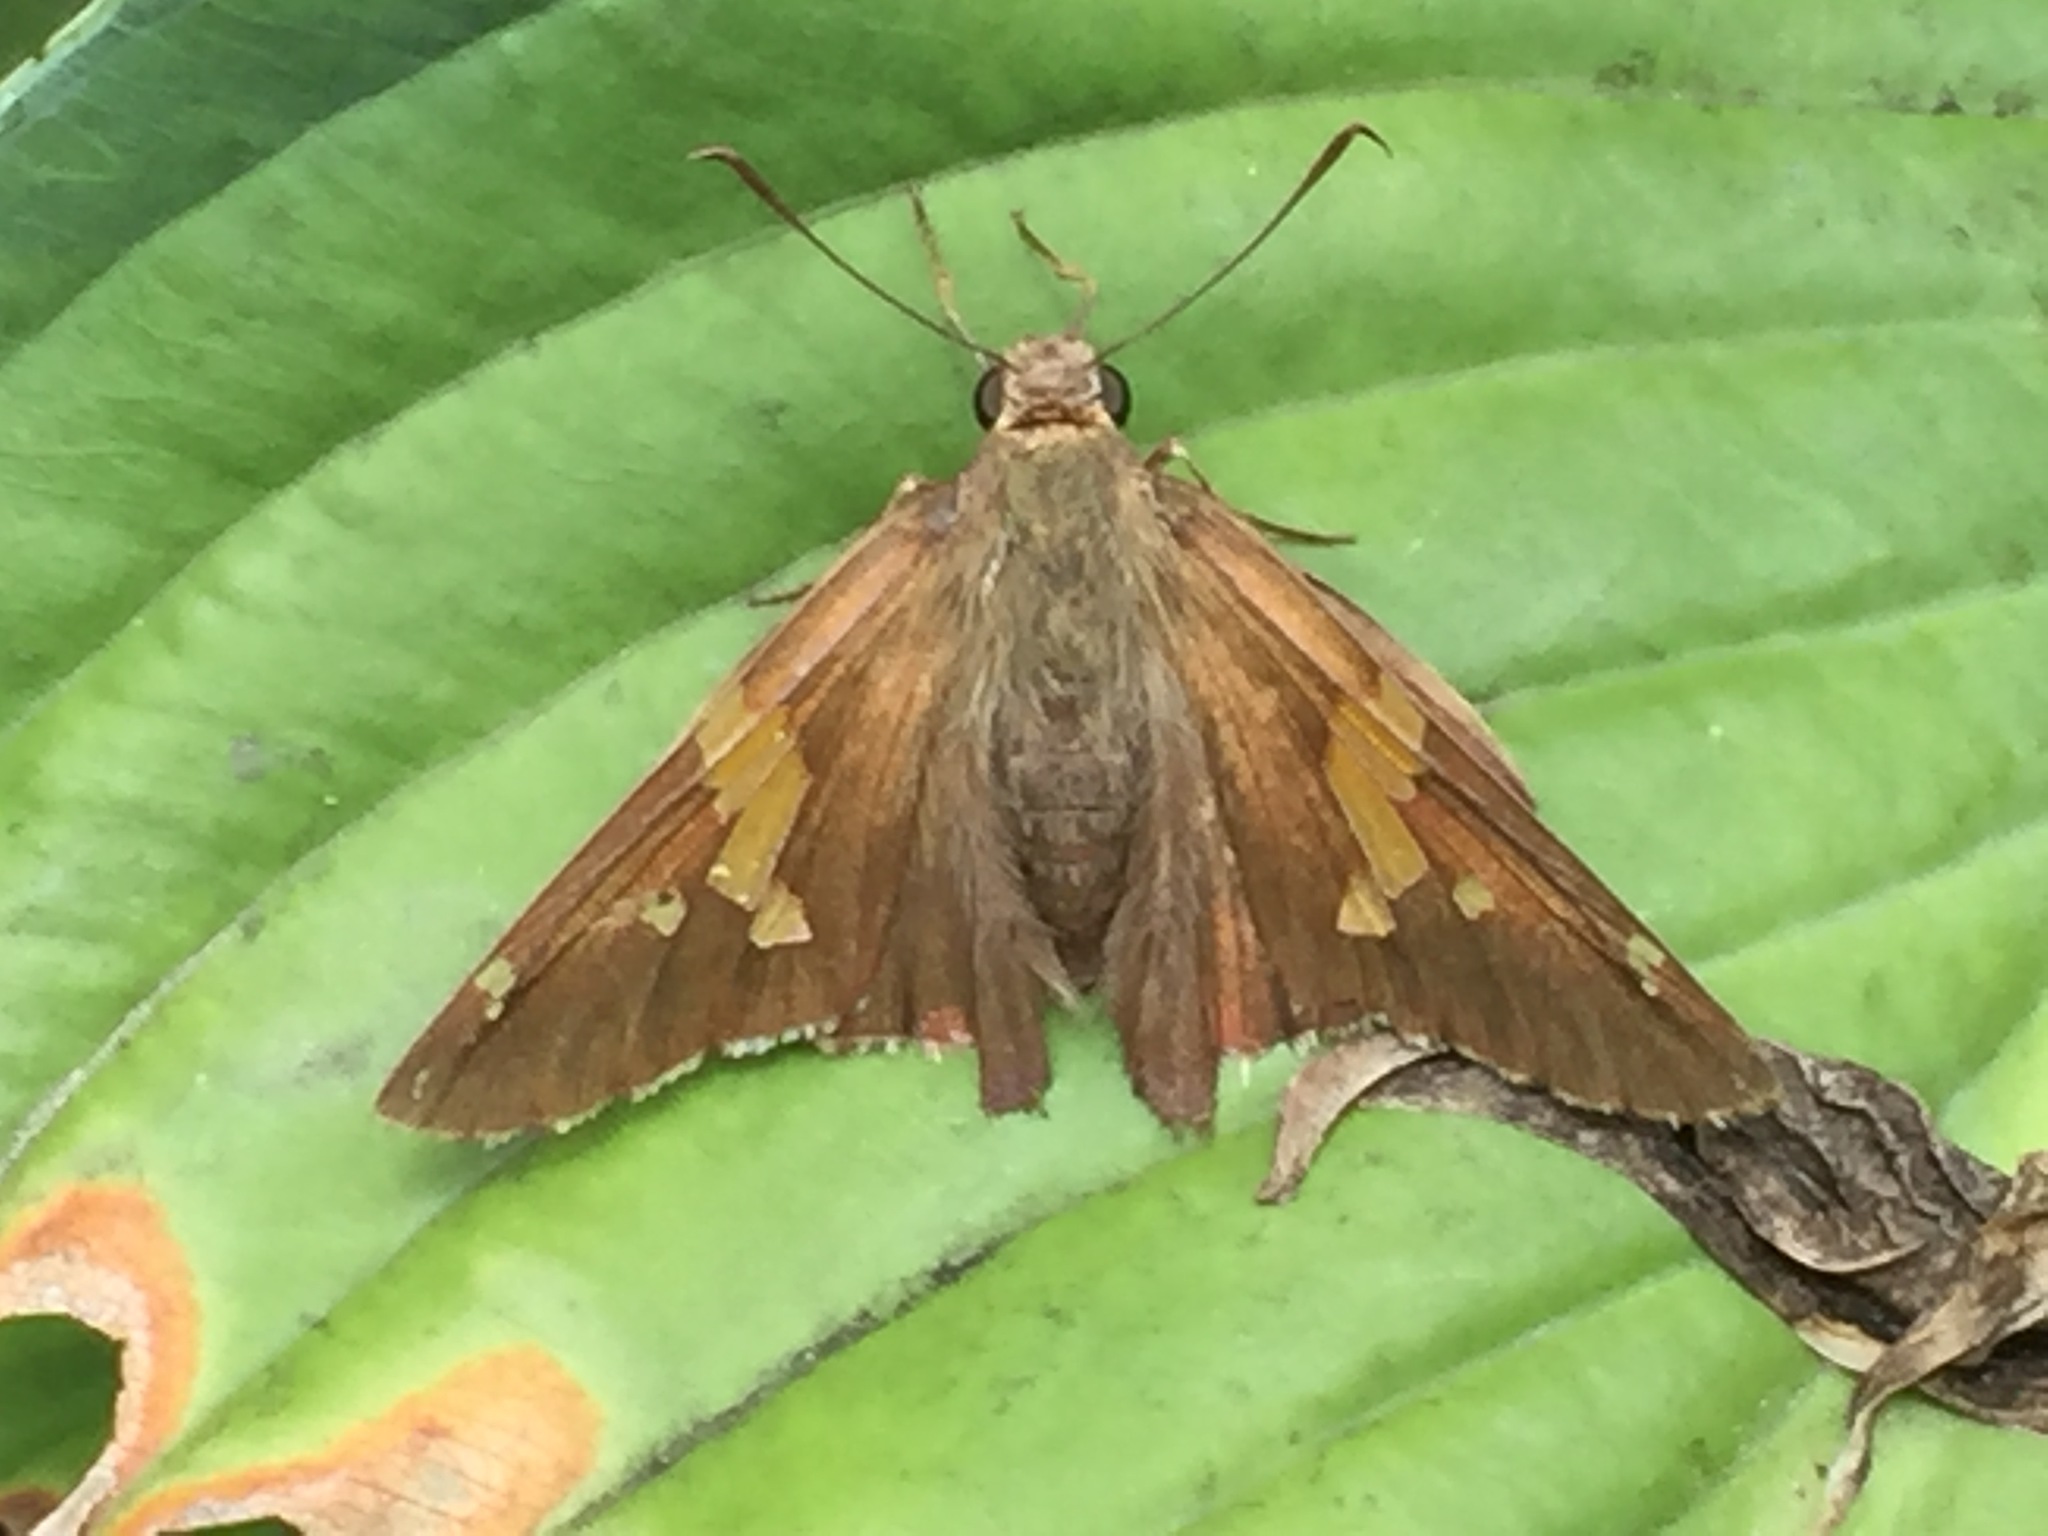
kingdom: Animalia
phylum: Arthropoda
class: Insecta
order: Lepidoptera
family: Hesperiidae
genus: Epargyreus
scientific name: Epargyreus clarus
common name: Silver-spotted skipper
